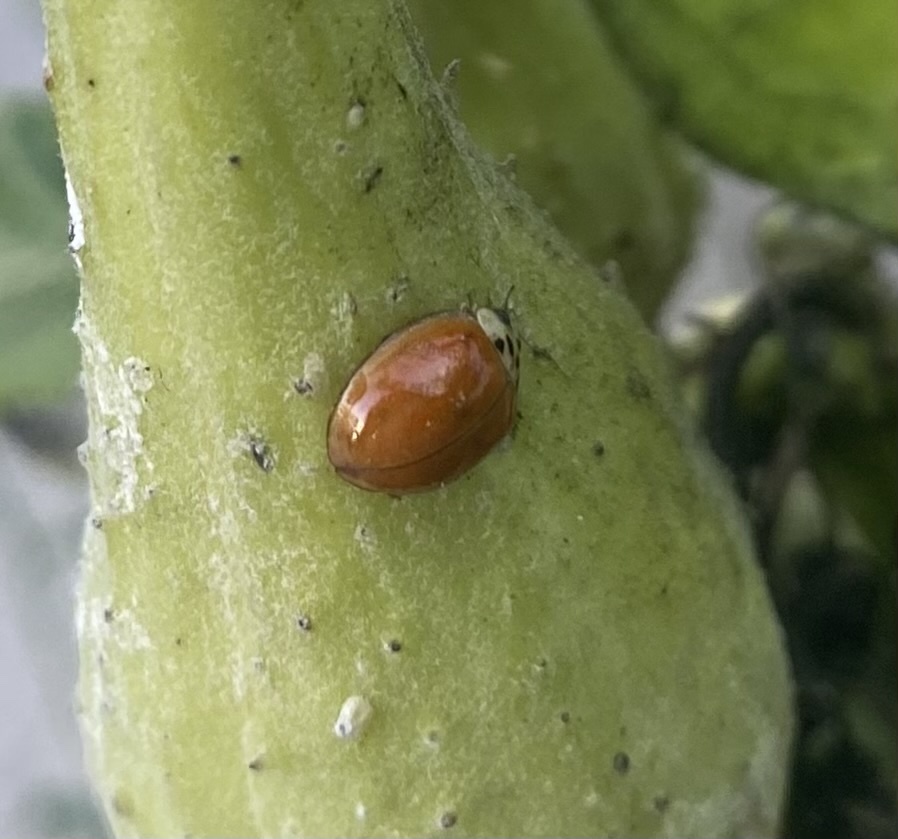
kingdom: Animalia
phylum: Arthropoda
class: Insecta
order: Coleoptera
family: Coccinellidae
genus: Harmonia
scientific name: Harmonia axyridis
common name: Harlequin ladybird
